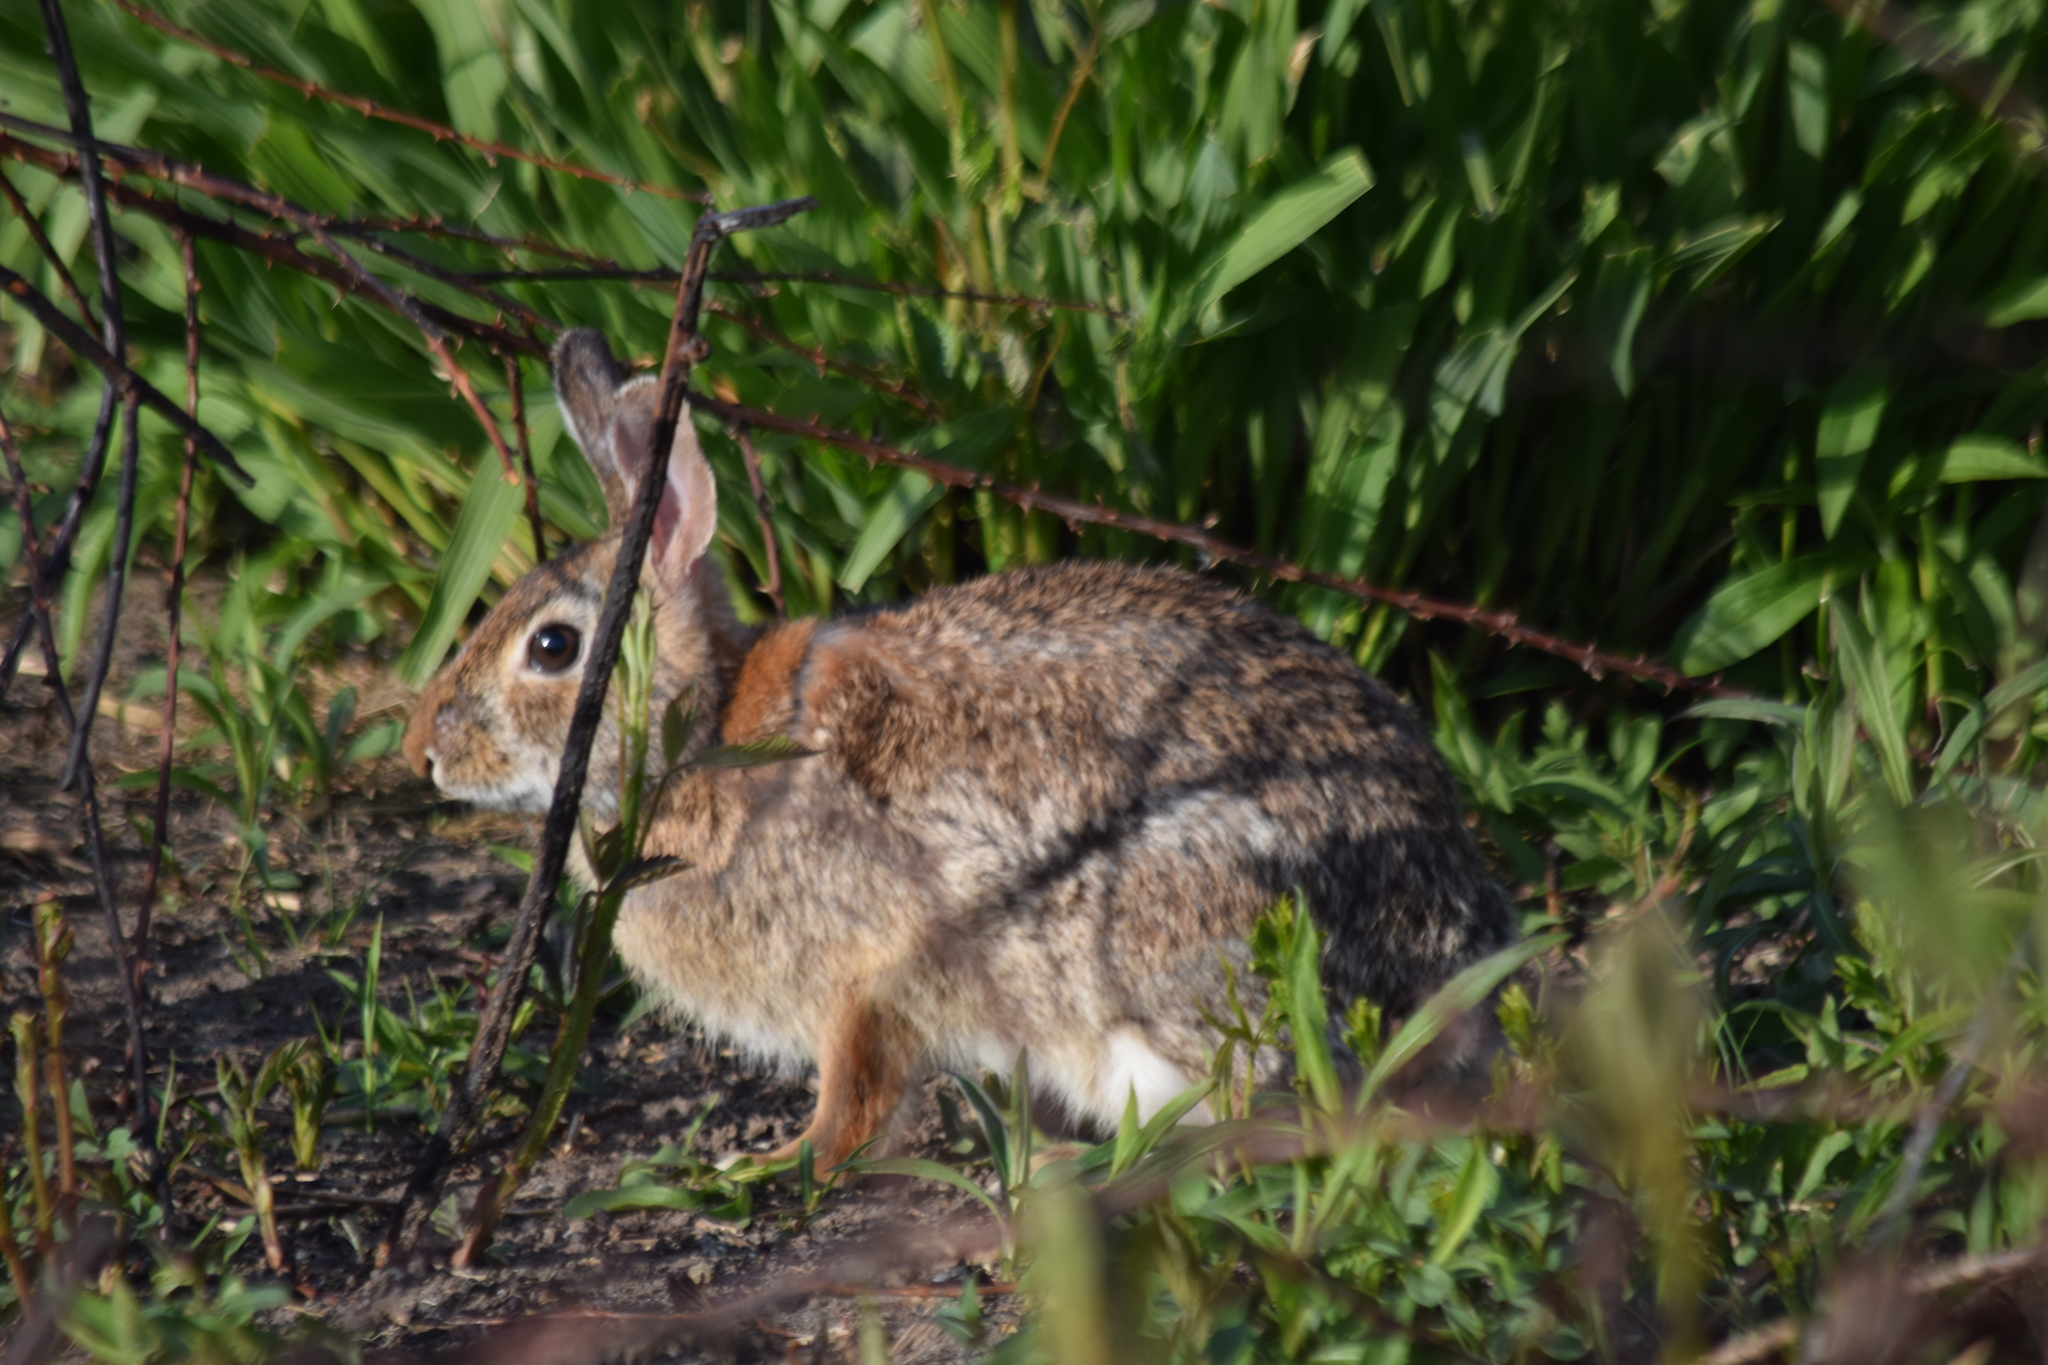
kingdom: Animalia
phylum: Chordata
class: Mammalia
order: Lagomorpha
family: Leporidae
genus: Sylvilagus
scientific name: Sylvilagus floridanus
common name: Eastern cottontail
